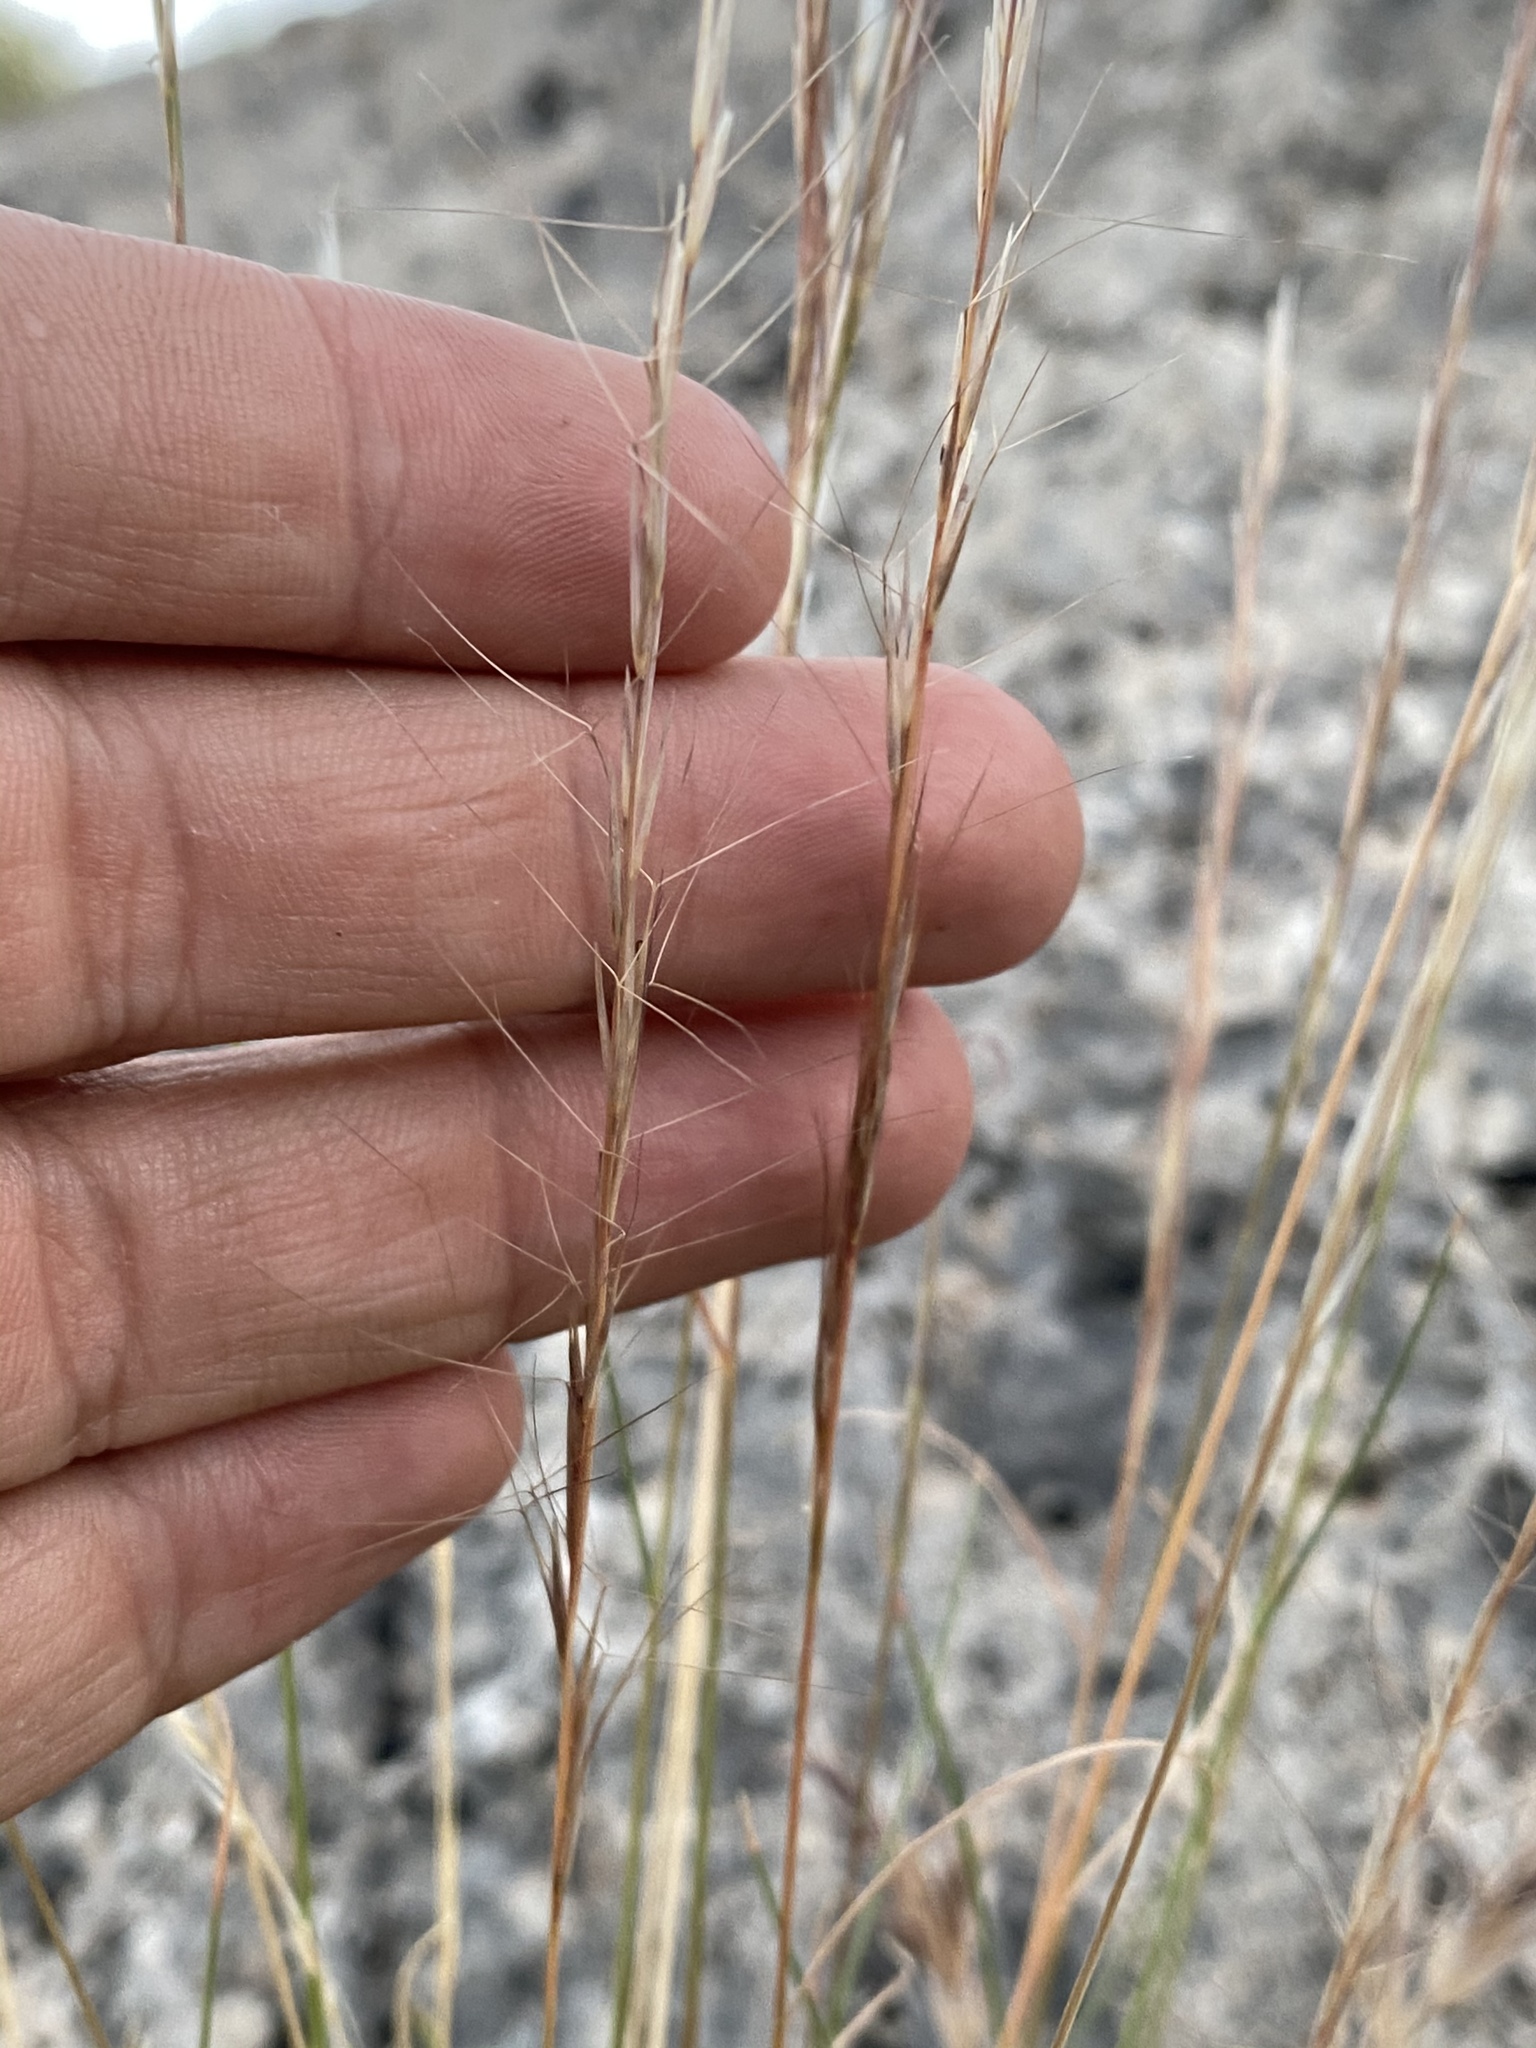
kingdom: Plantae
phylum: Tracheophyta
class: Liliopsida
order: Poales
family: Poaceae
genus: Aristida
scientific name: Aristida purpurea
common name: Purple threeawn
